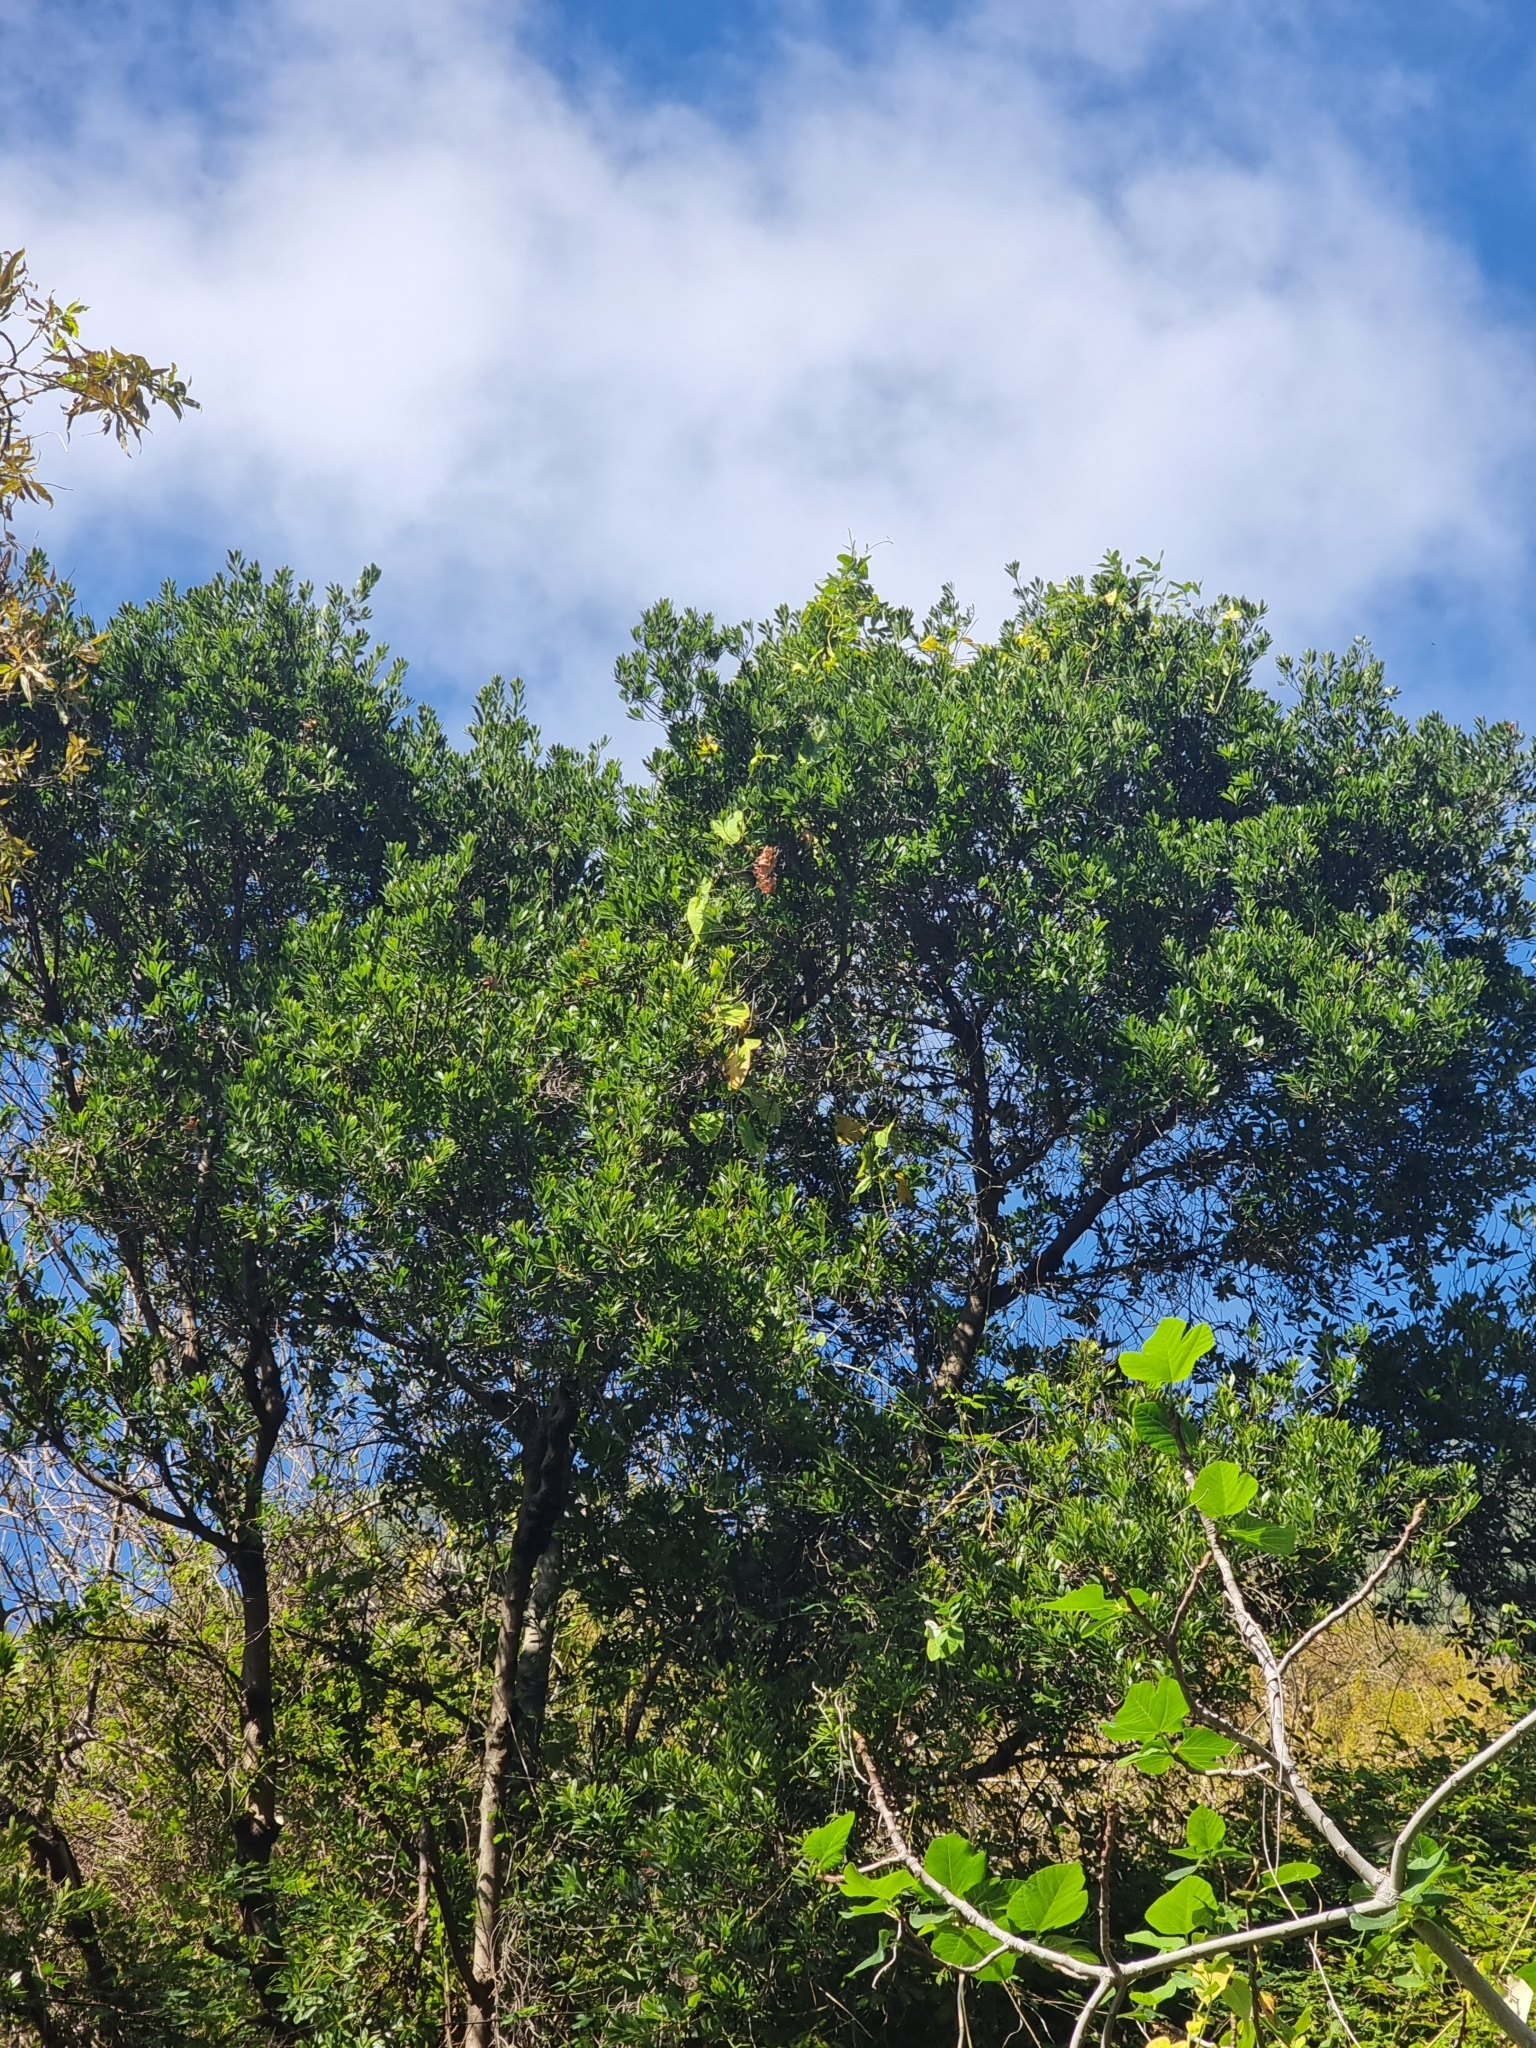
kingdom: Plantae
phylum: Tracheophyta
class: Magnoliopsida
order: Fagales
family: Myricaceae
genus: Morella
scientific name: Morella faya
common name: Firetree
